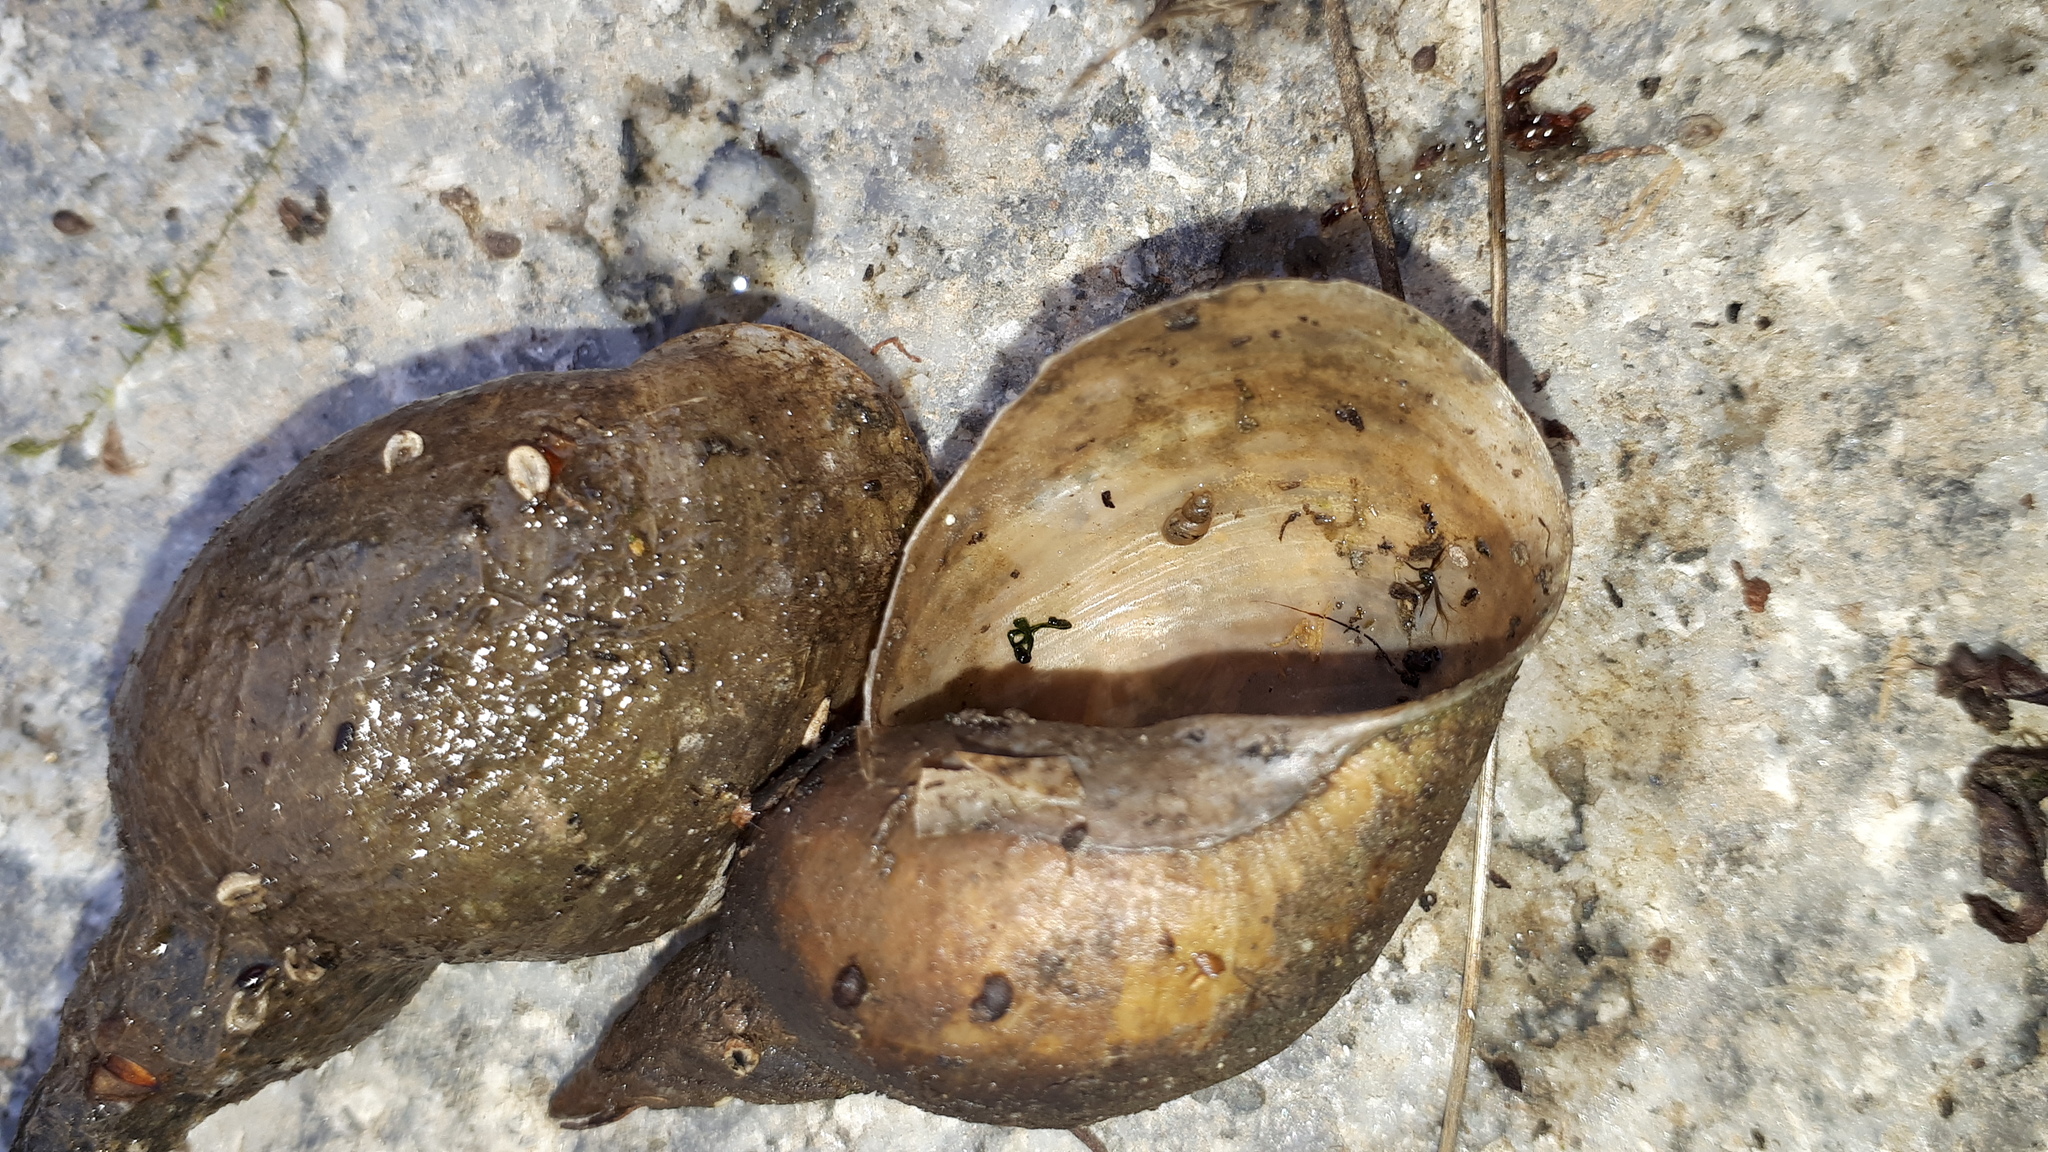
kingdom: Animalia
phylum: Mollusca
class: Gastropoda
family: Lymnaeidae
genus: Lymnaea
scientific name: Lymnaea stagnalis
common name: Great pond snail
